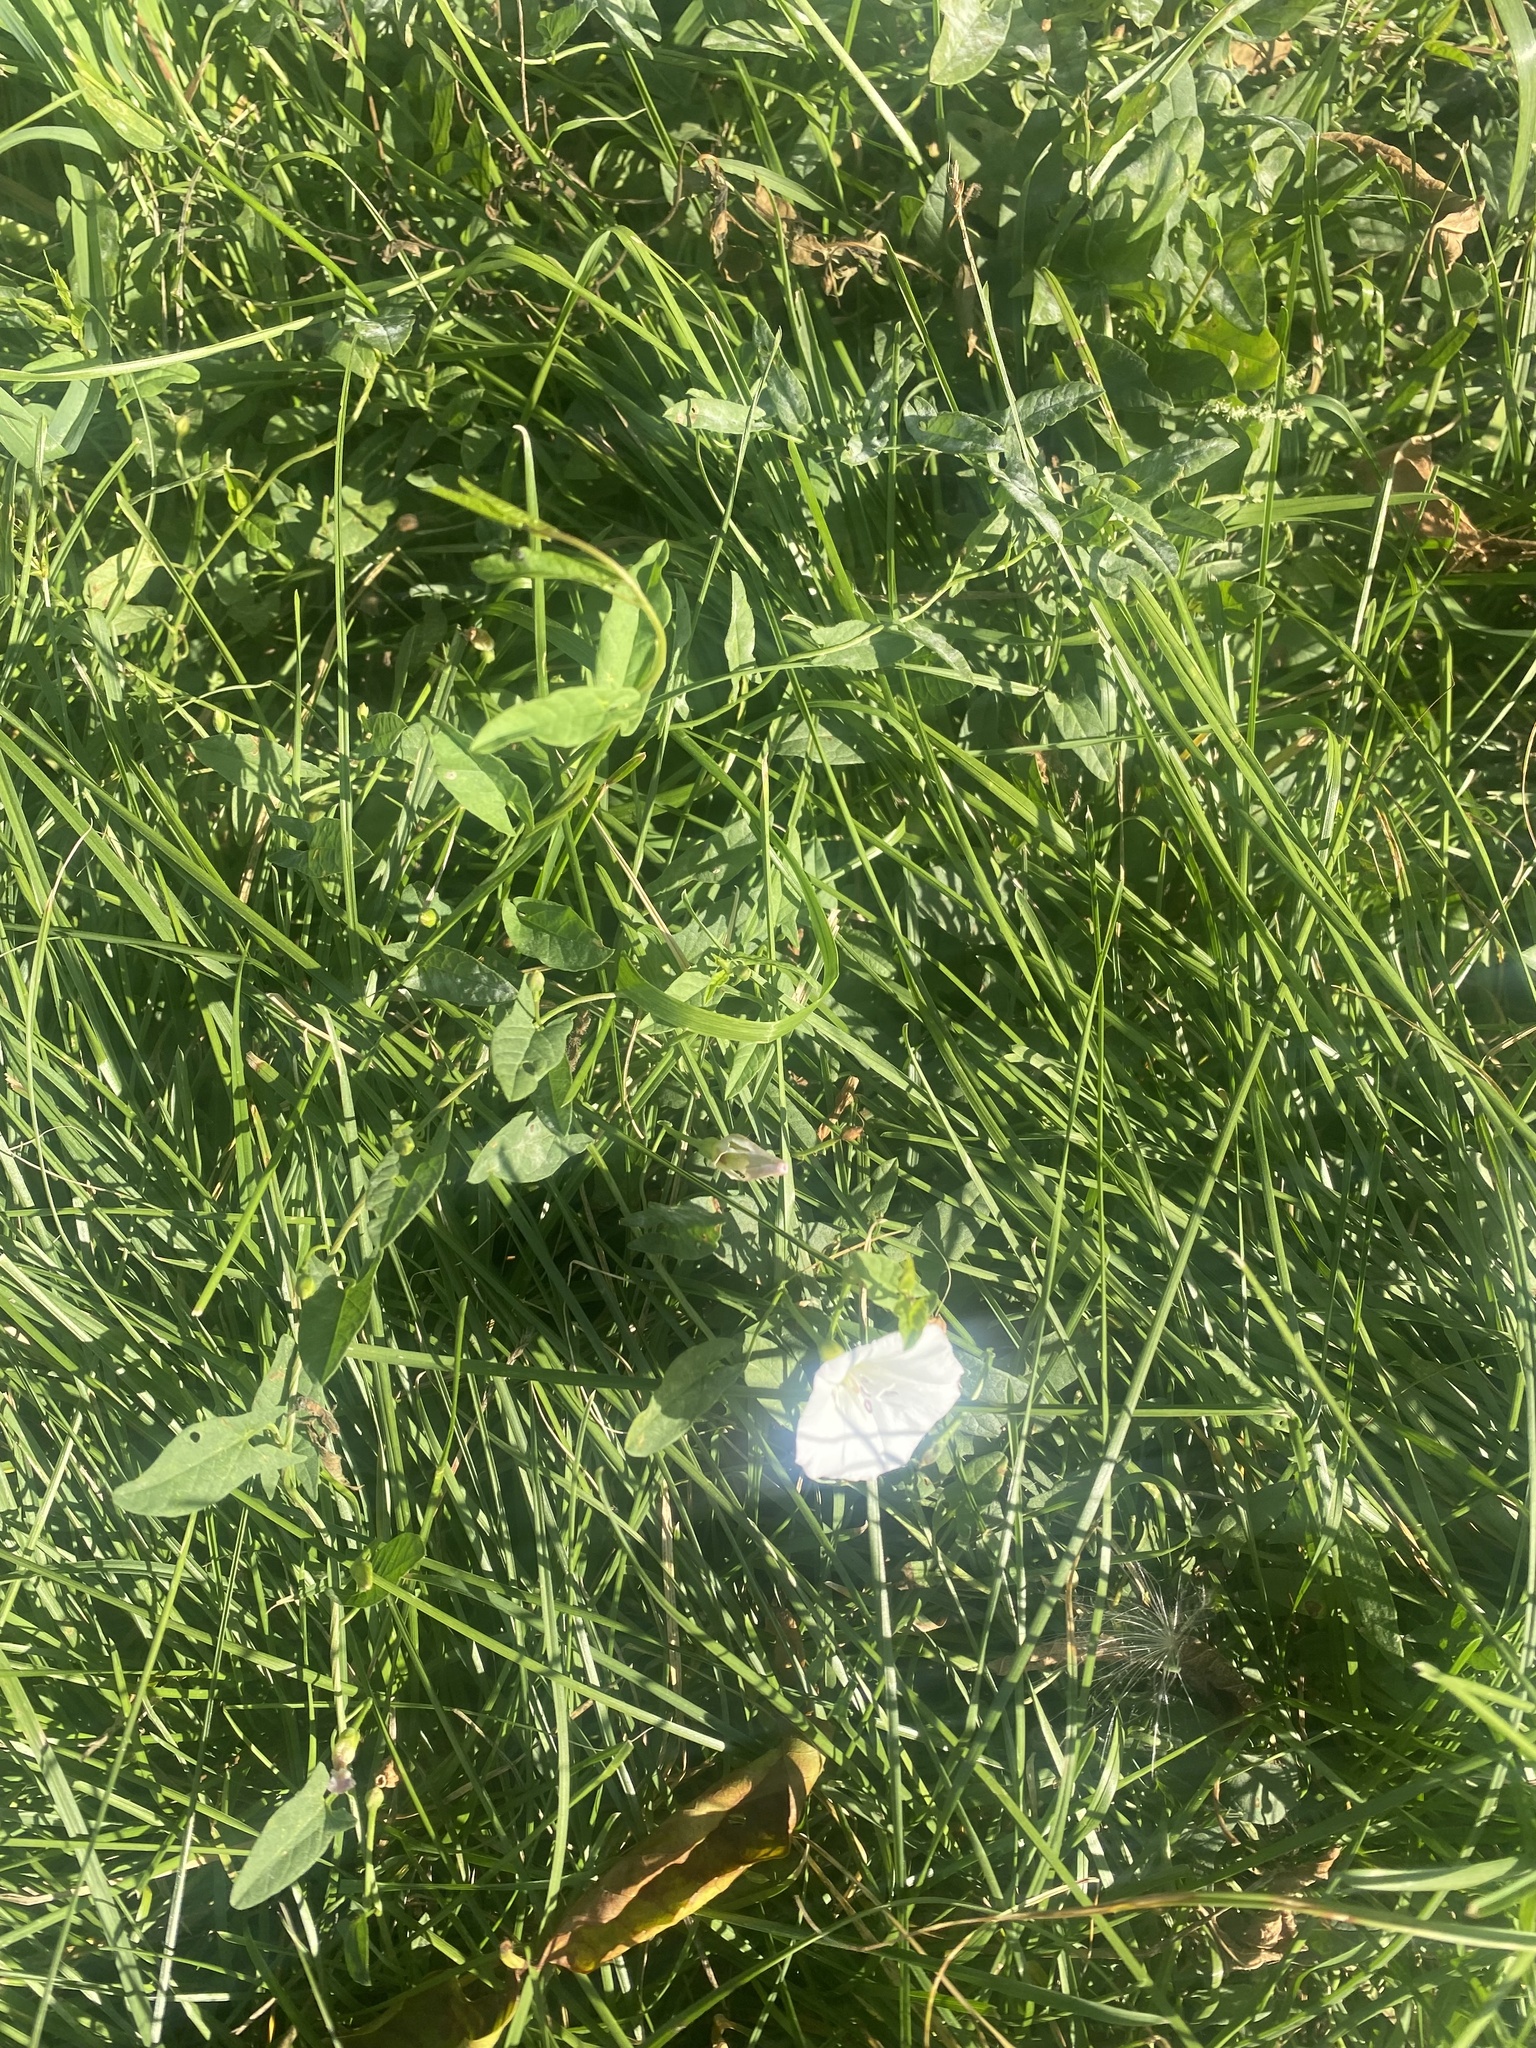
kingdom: Plantae
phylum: Tracheophyta
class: Magnoliopsida
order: Solanales
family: Convolvulaceae
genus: Convolvulus
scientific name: Convolvulus arvensis
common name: Field bindweed
